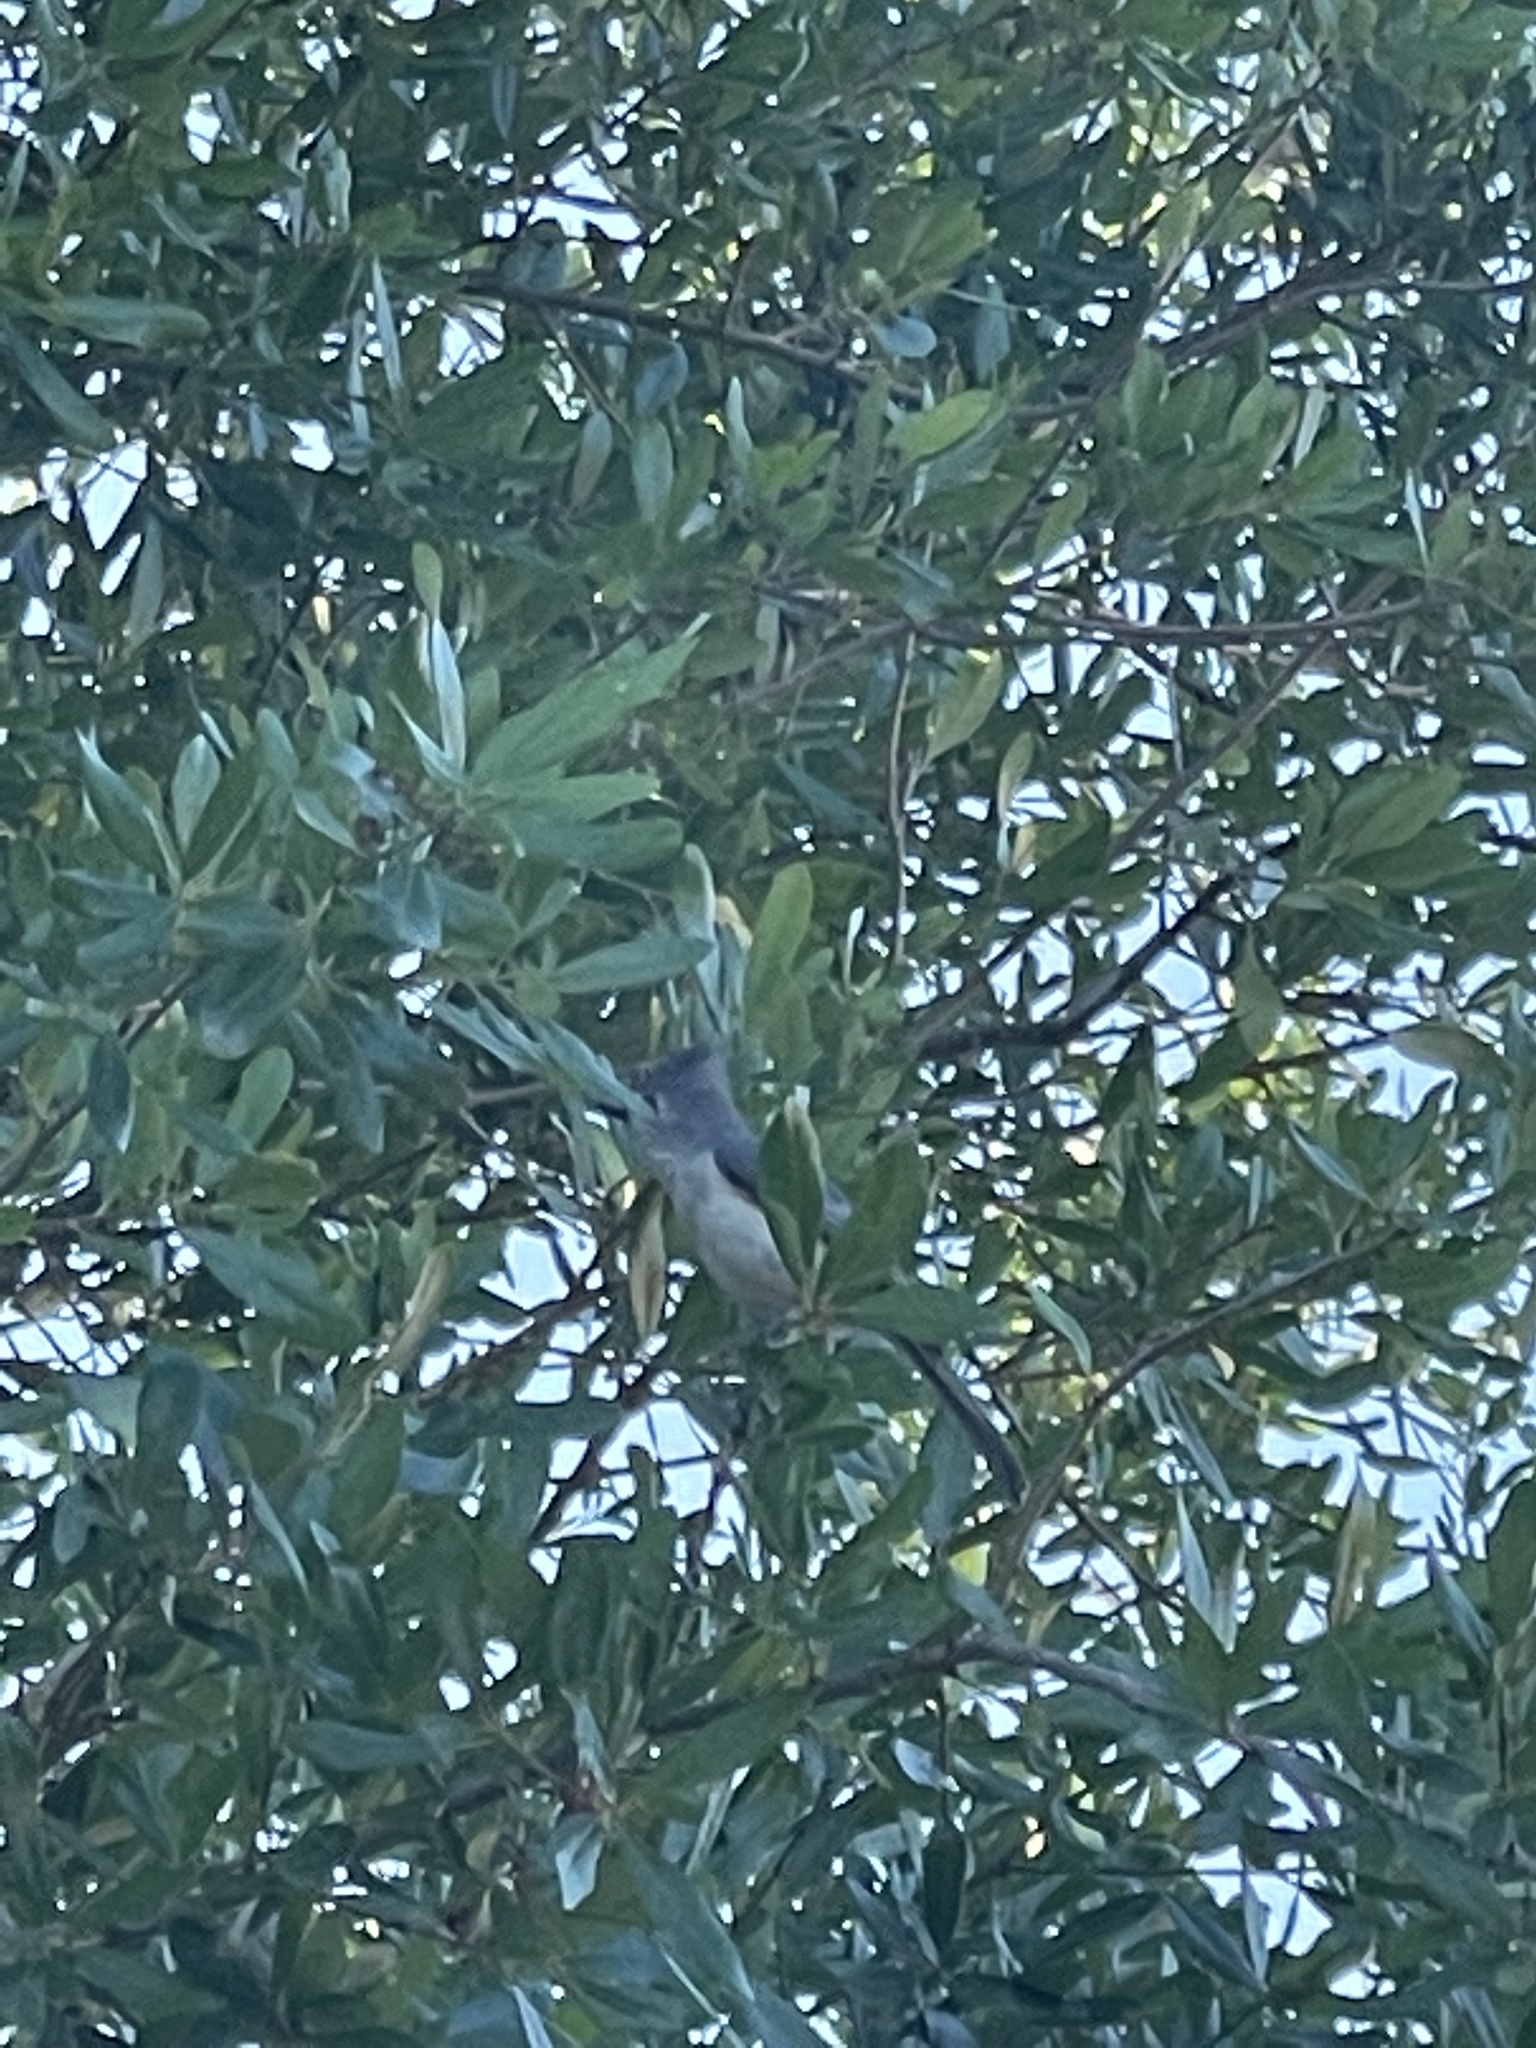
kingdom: Animalia
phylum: Chordata
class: Aves
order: Passeriformes
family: Paridae
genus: Baeolophus
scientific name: Baeolophus bicolor
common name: Tufted titmouse
